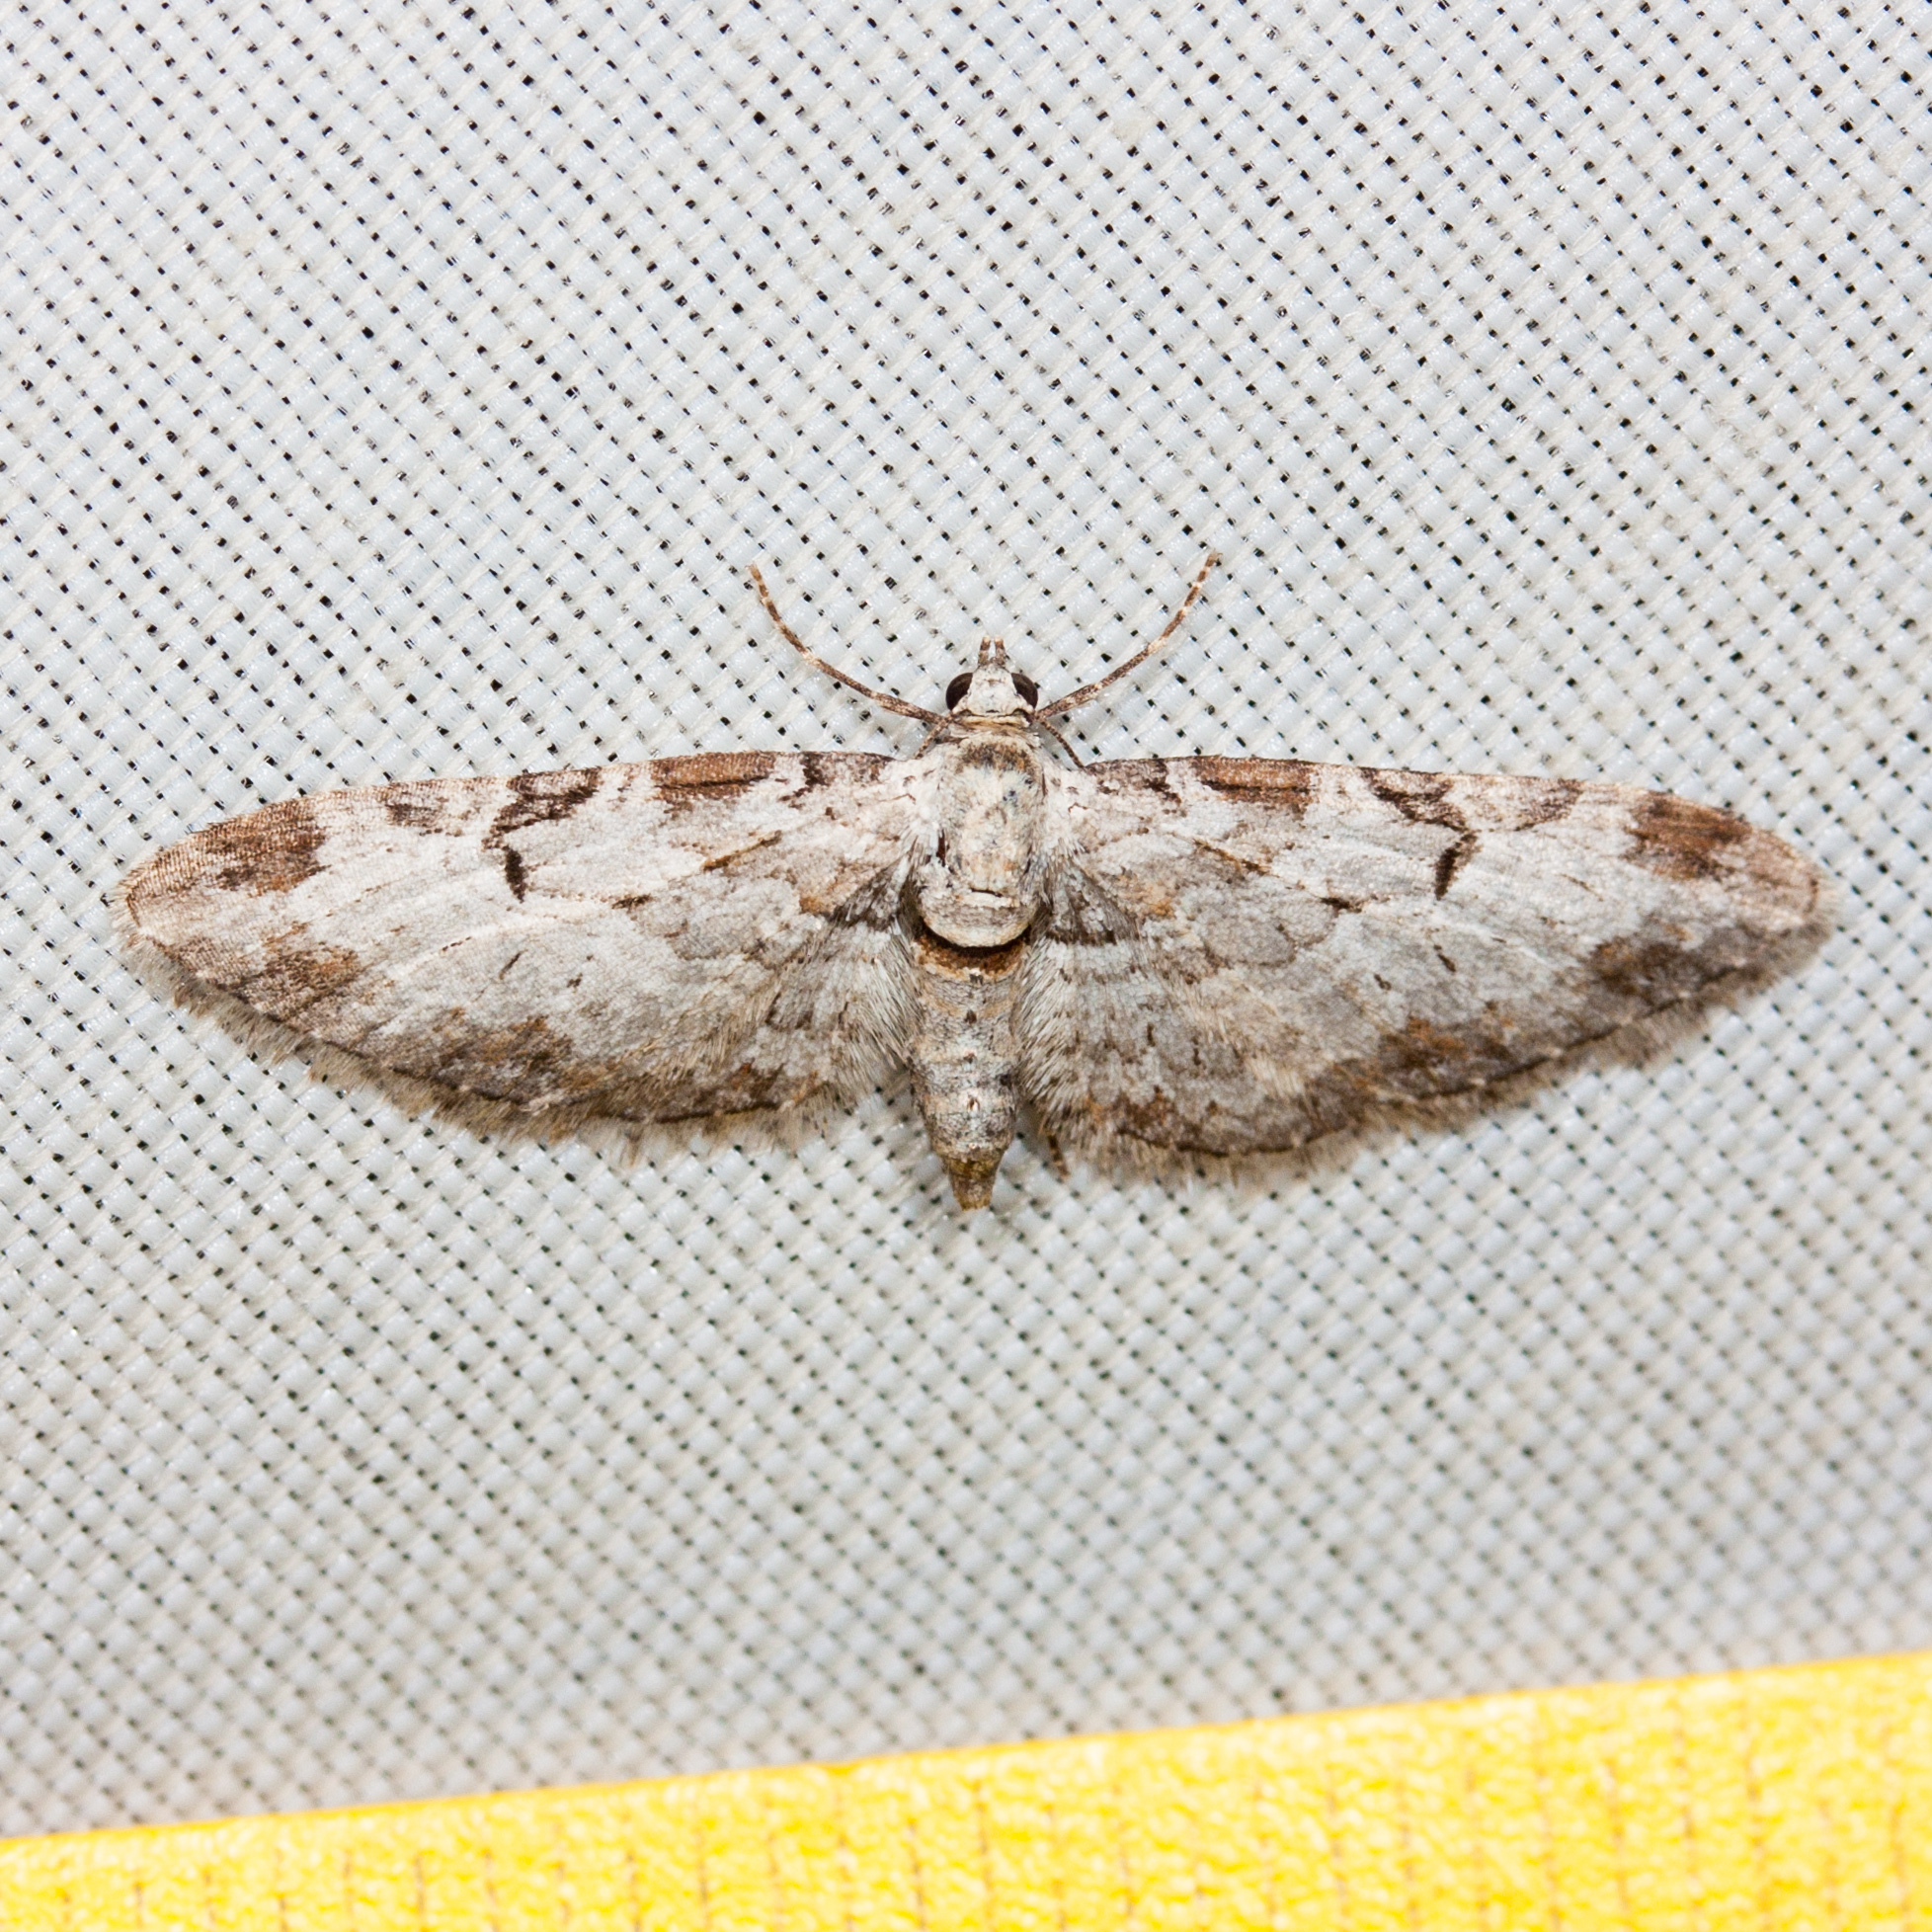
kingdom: Animalia
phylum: Arthropoda
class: Insecta
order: Lepidoptera
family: Geometridae
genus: Eupithecia
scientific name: Eupithecia zelmira
